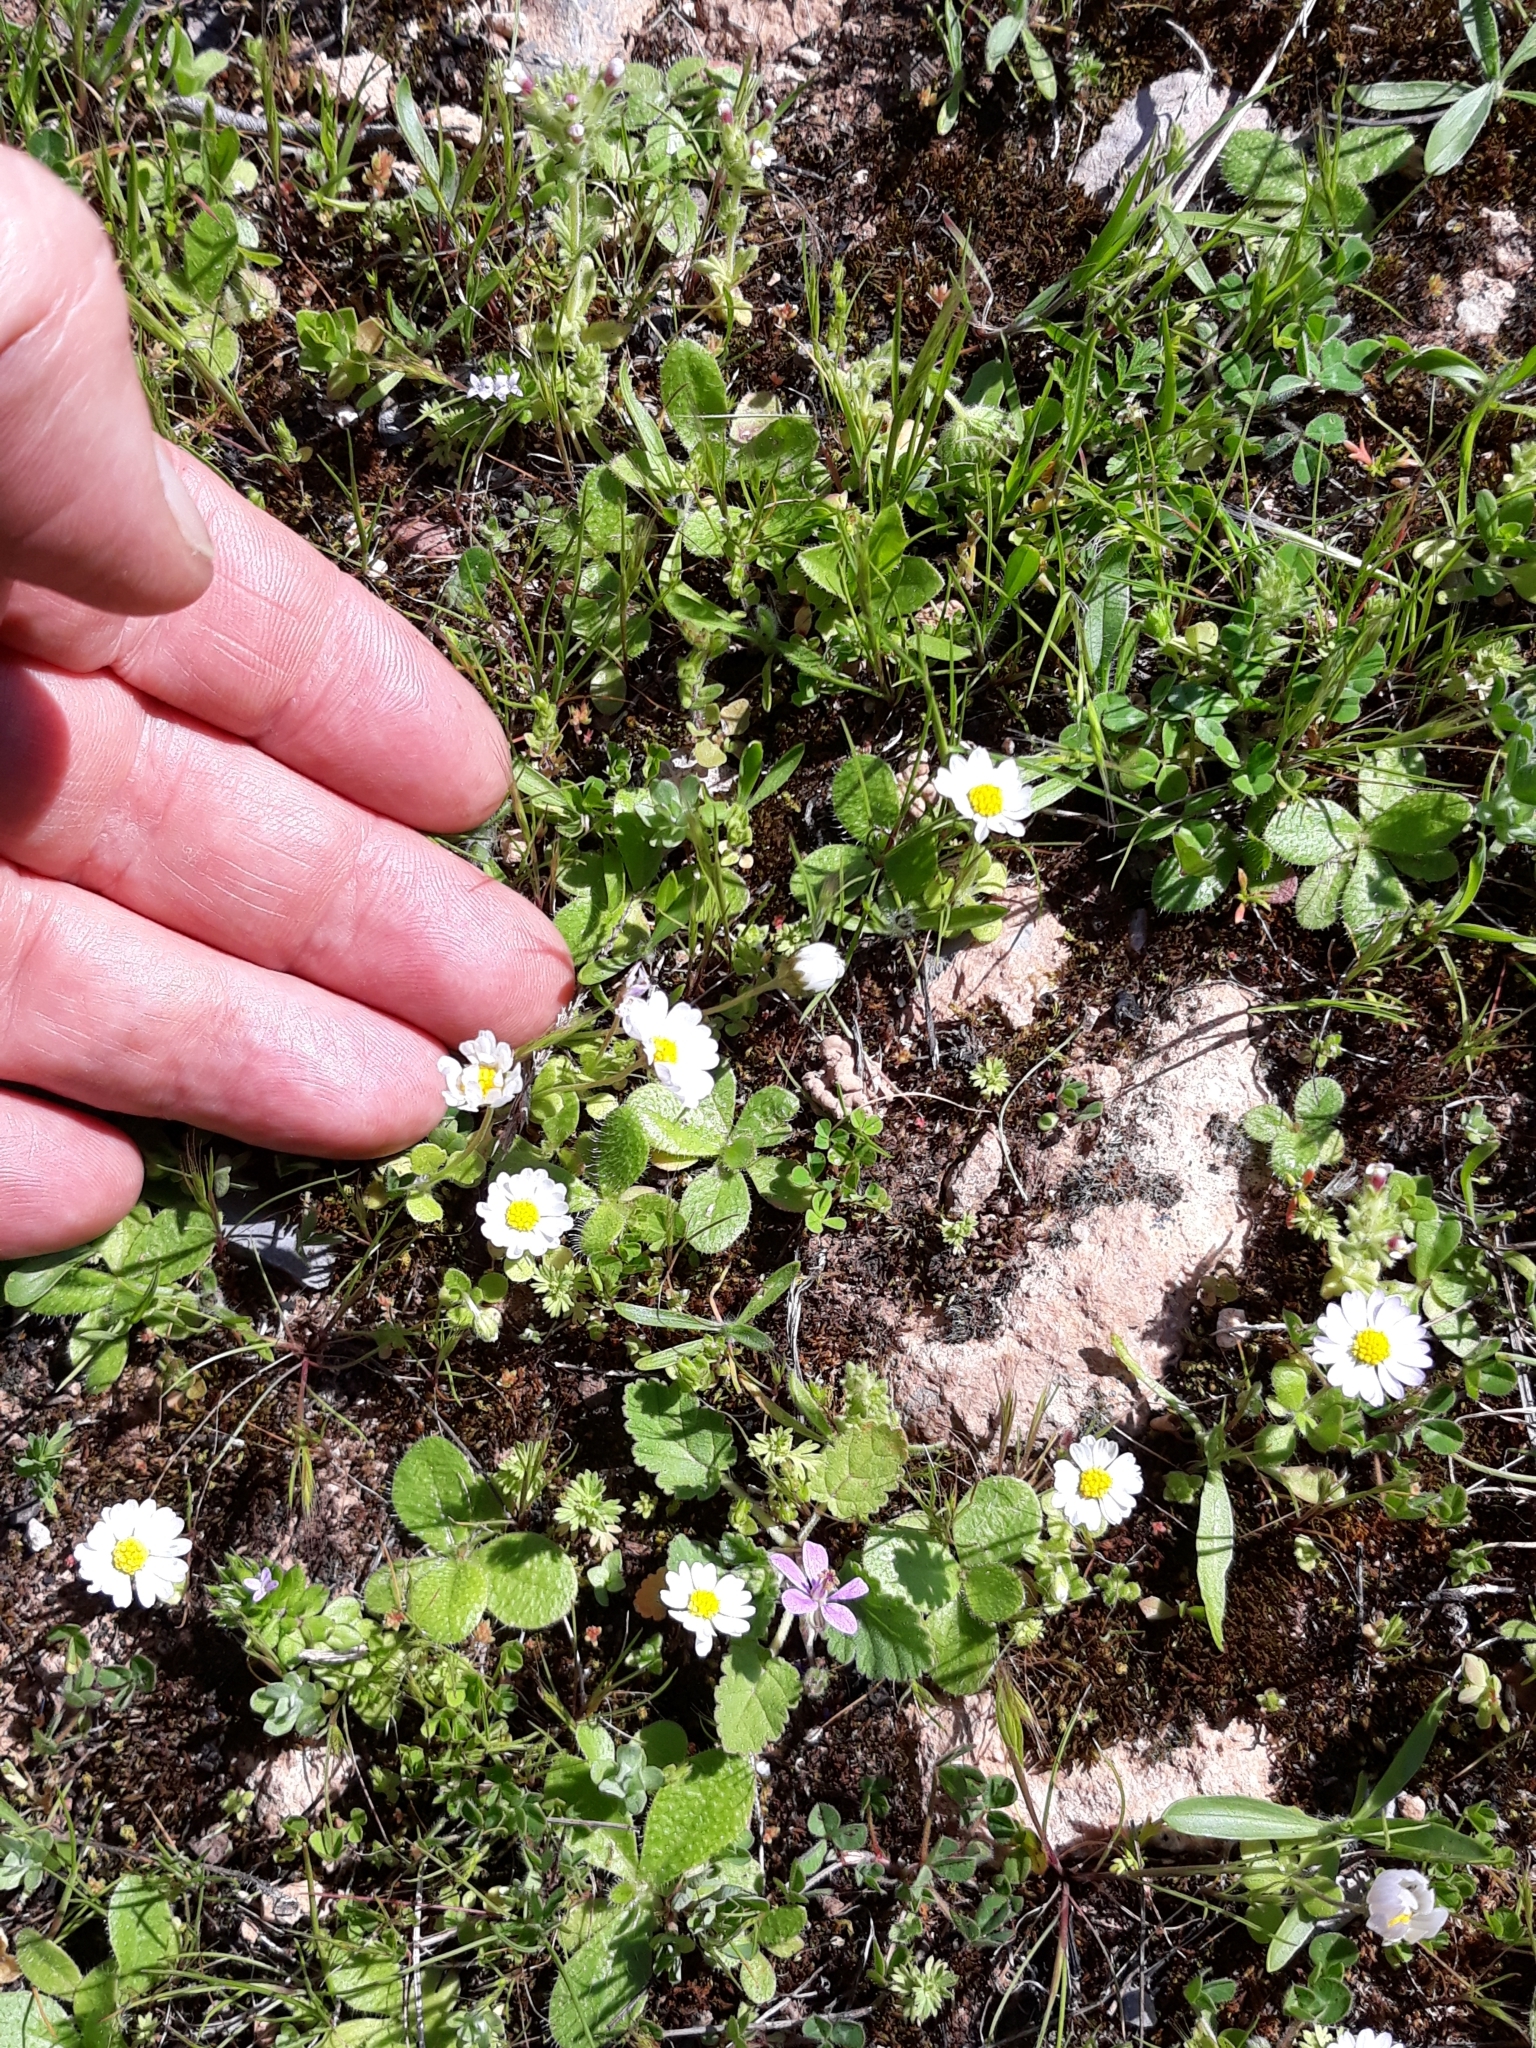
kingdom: Plantae
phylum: Tracheophyta
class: Magnoliopsida
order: Asterales
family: Asteraceae
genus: Bellis
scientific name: Bellis annua
